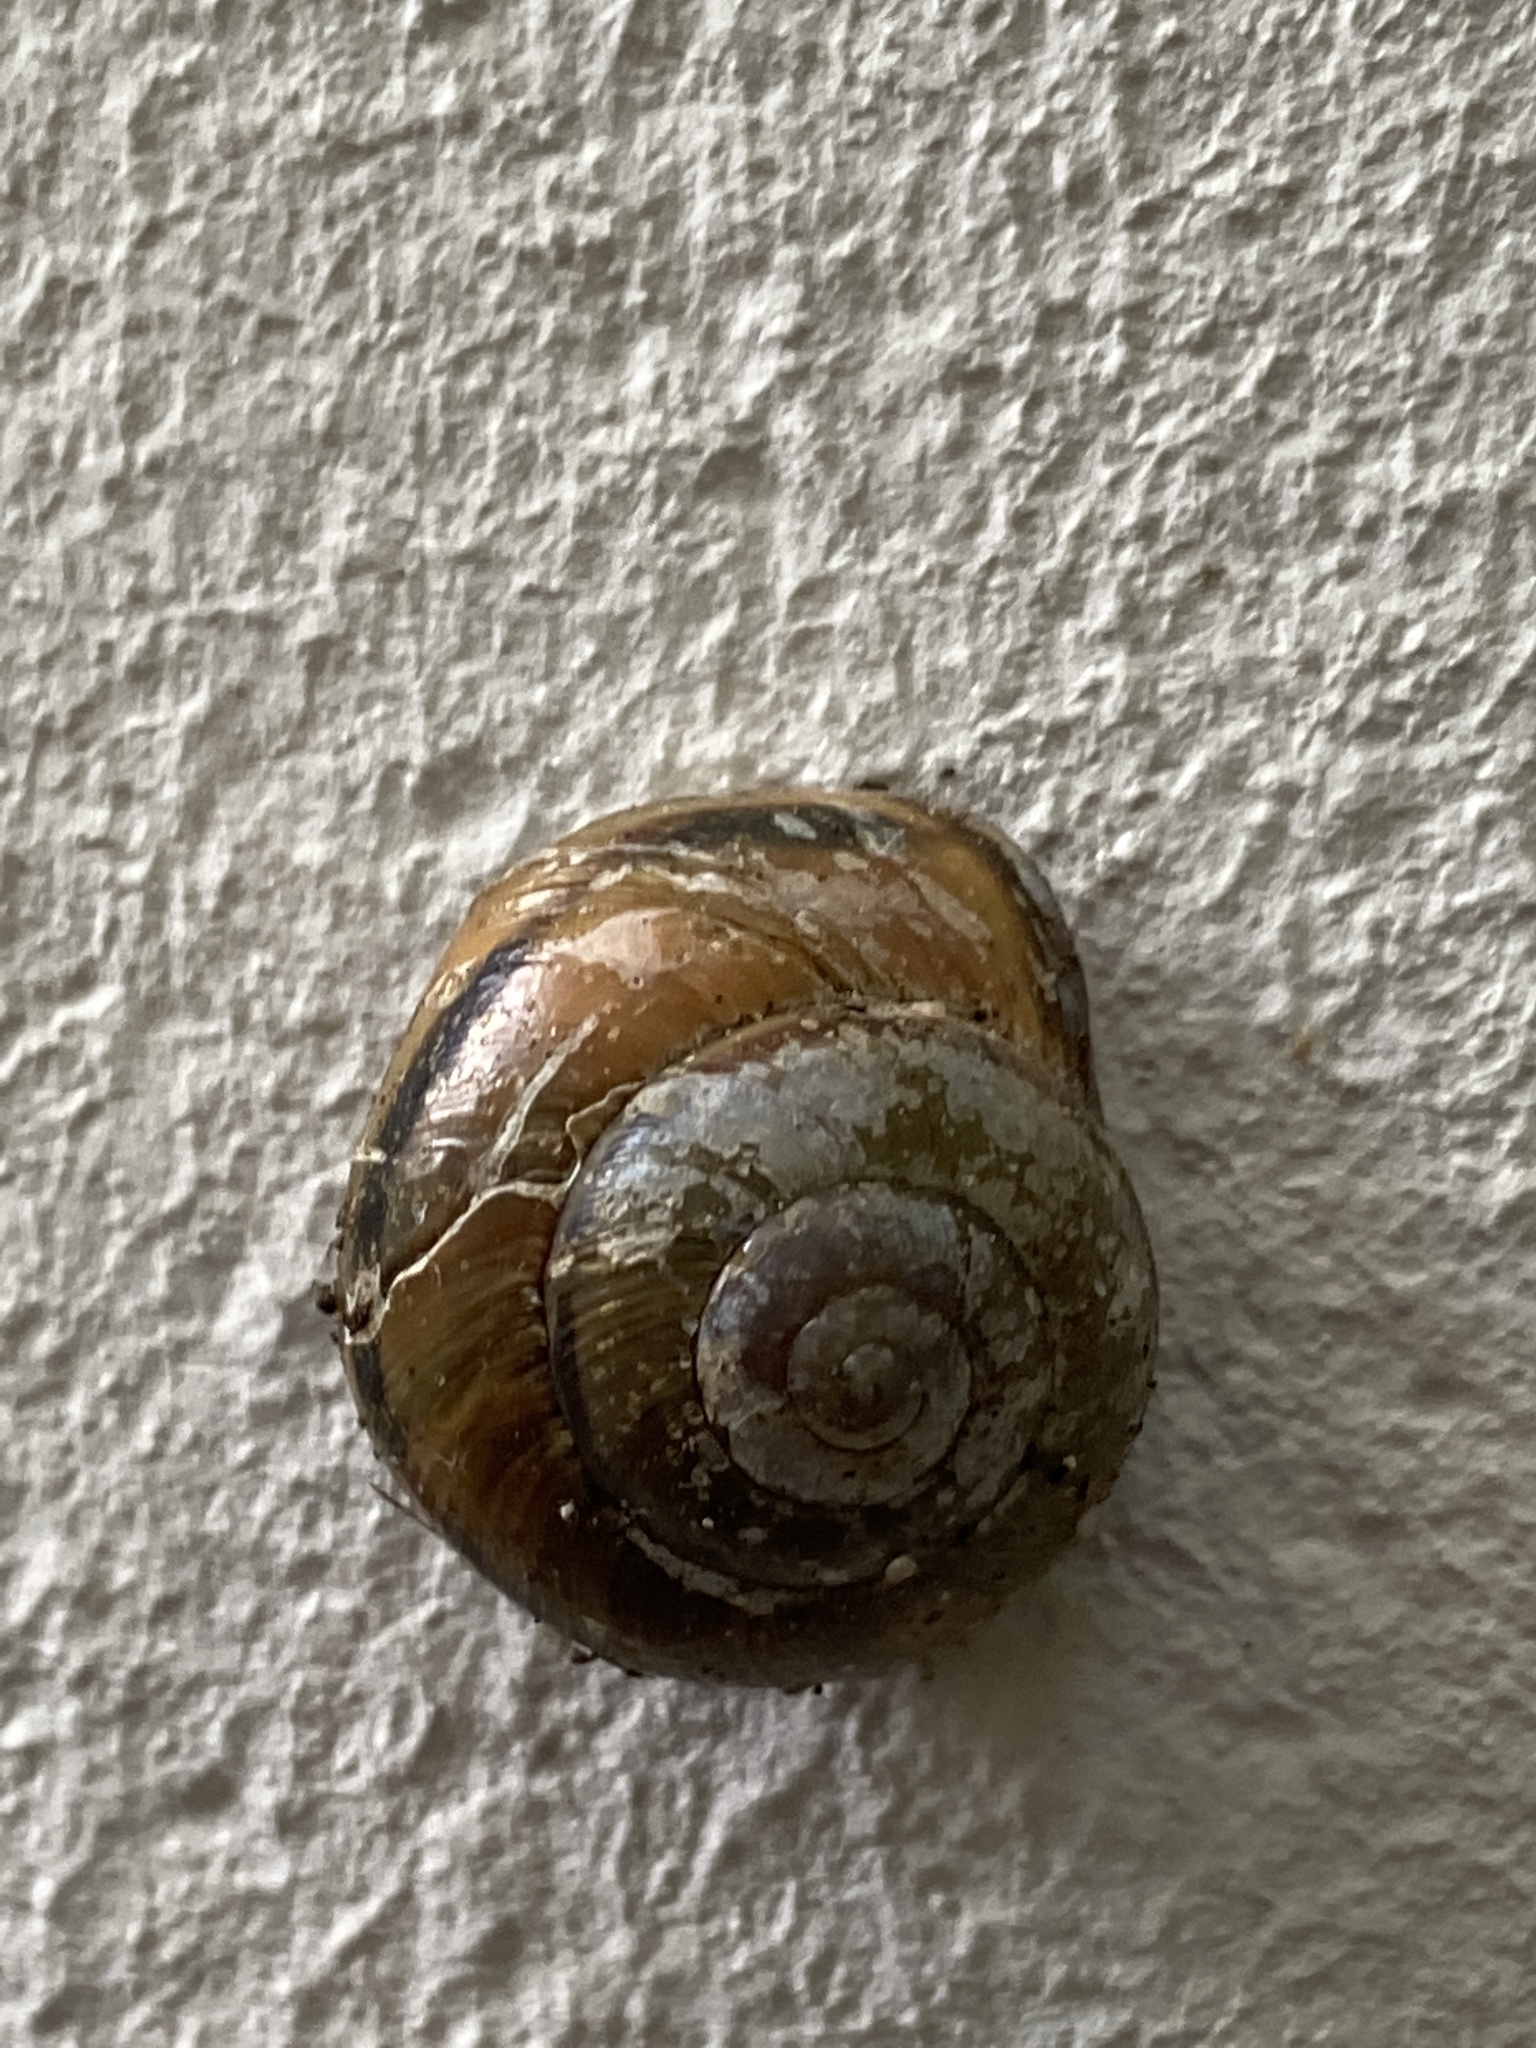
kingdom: Animalia
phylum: Mollusca
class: Gastropoda
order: Stylommatophora
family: Helicidae
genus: Cepaea
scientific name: Cepaea nemoralis
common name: Grovesnail
